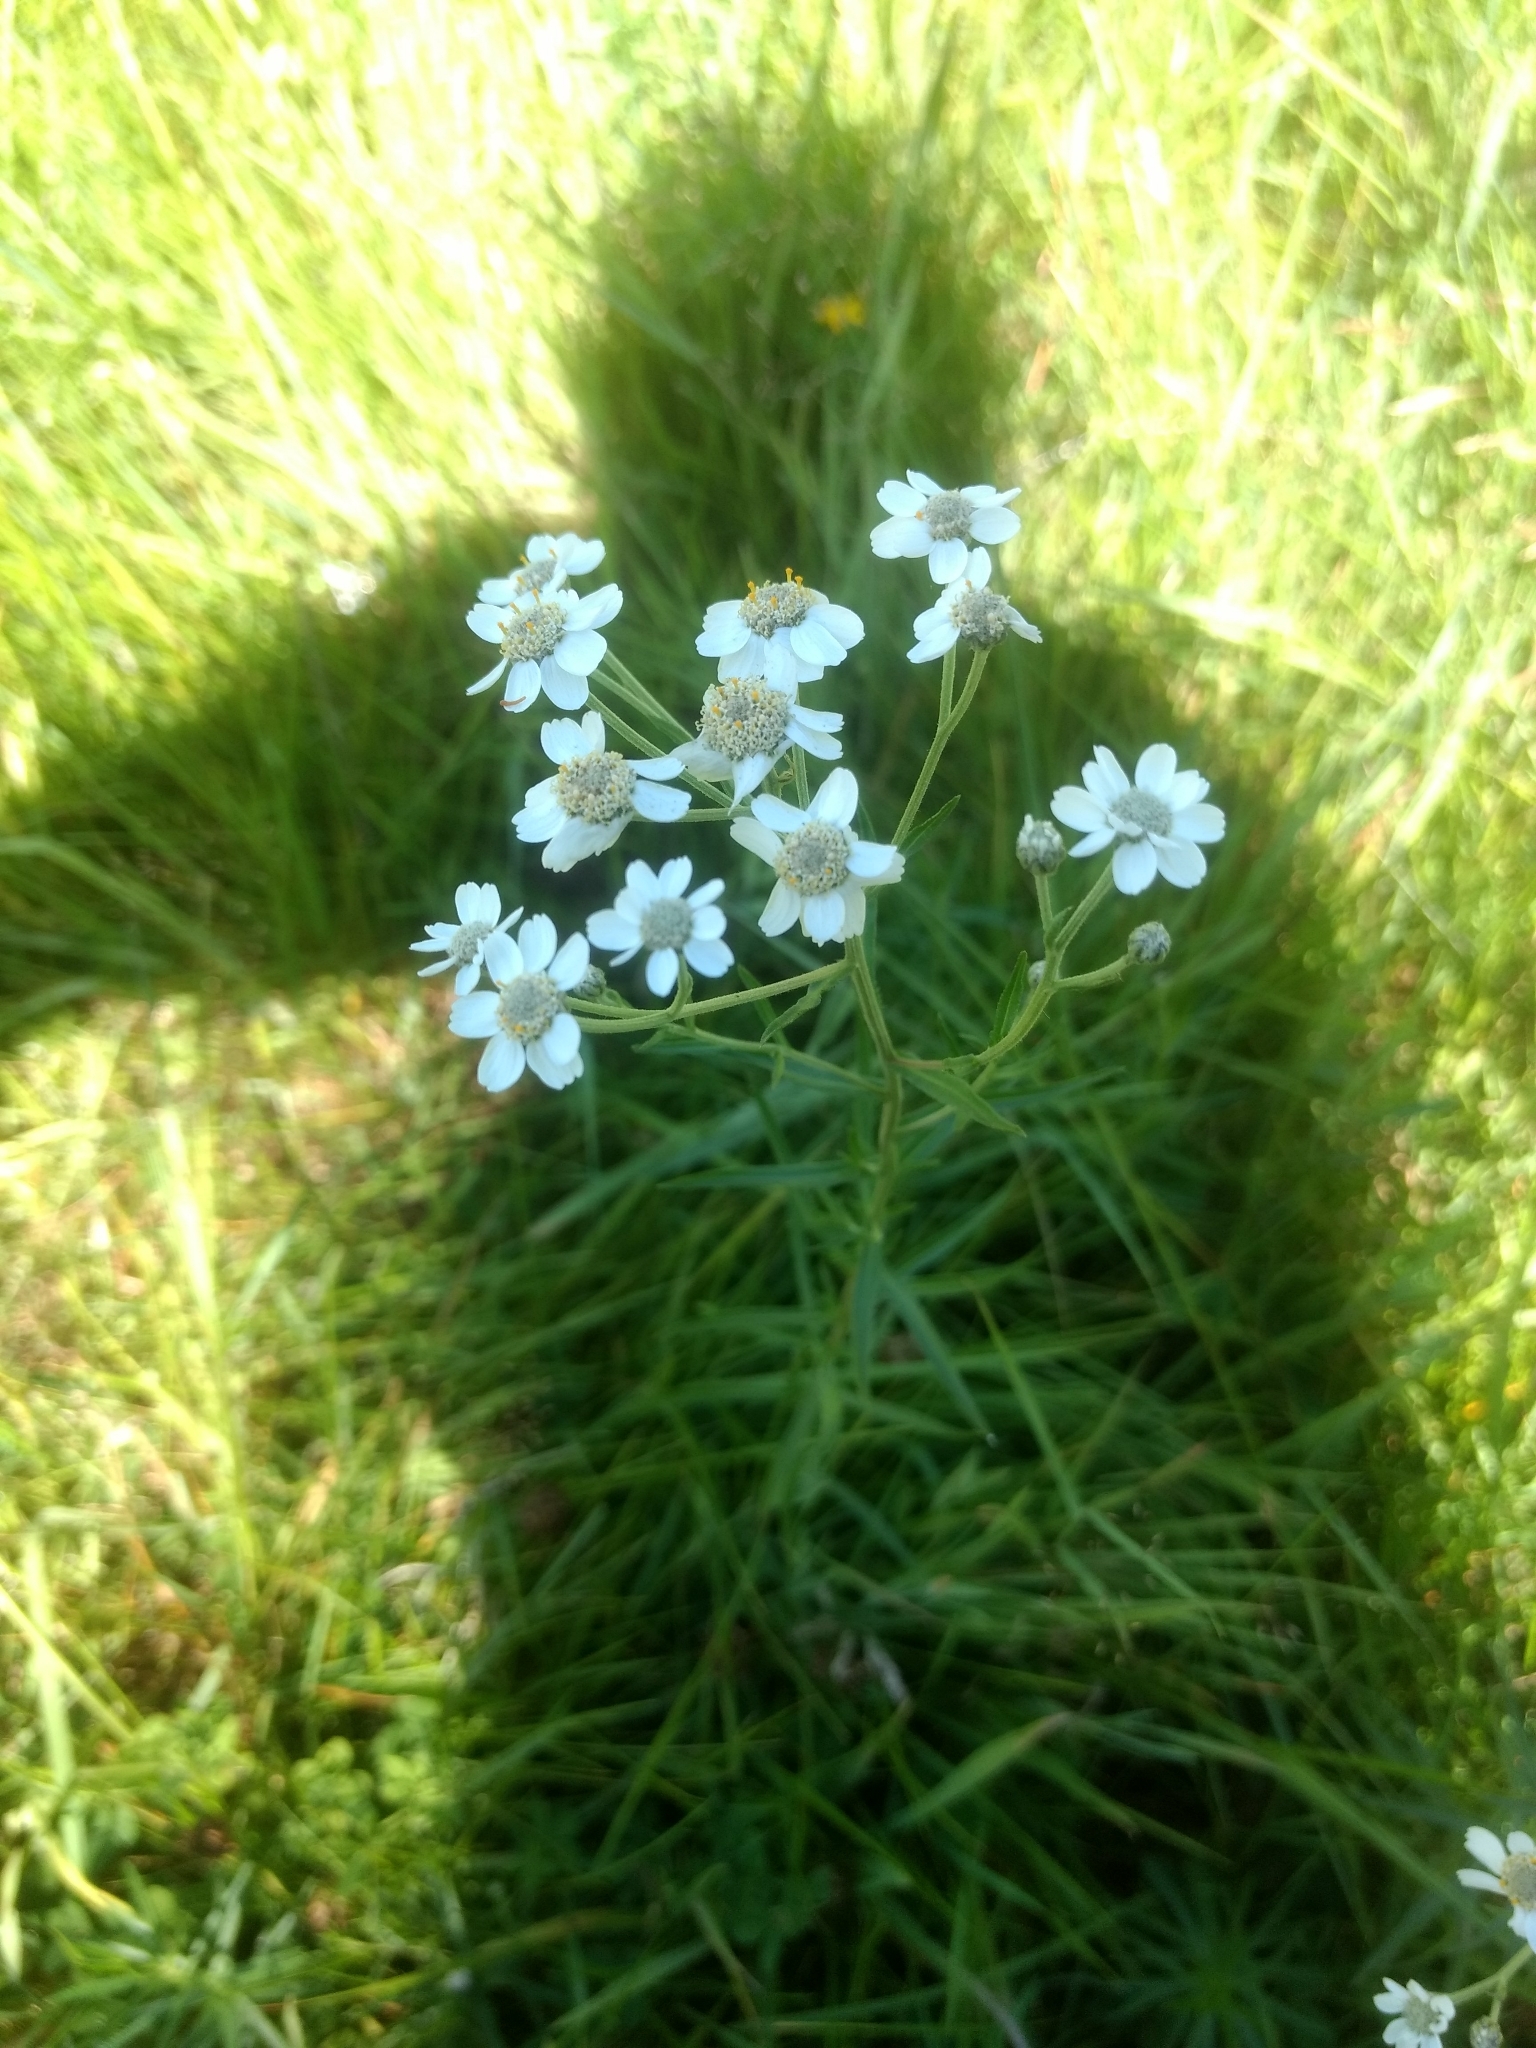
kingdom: Plantae
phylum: Tracheophyta
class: Magnoliopsida
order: Asterales
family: Asteraceae
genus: Achillea
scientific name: Achillea ptarmica
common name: Sneezeweed
